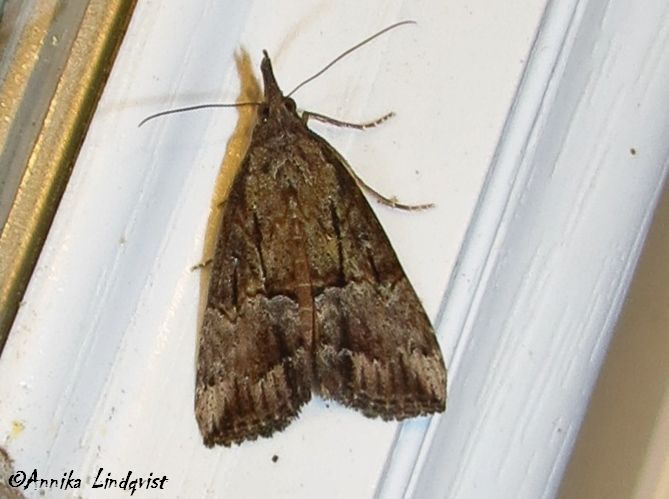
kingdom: Animalia
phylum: Arthropoda
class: Insecta
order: Lepidoptera
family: Erebidae
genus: Hypena
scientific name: Hypena scabra
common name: Green cloverworm
